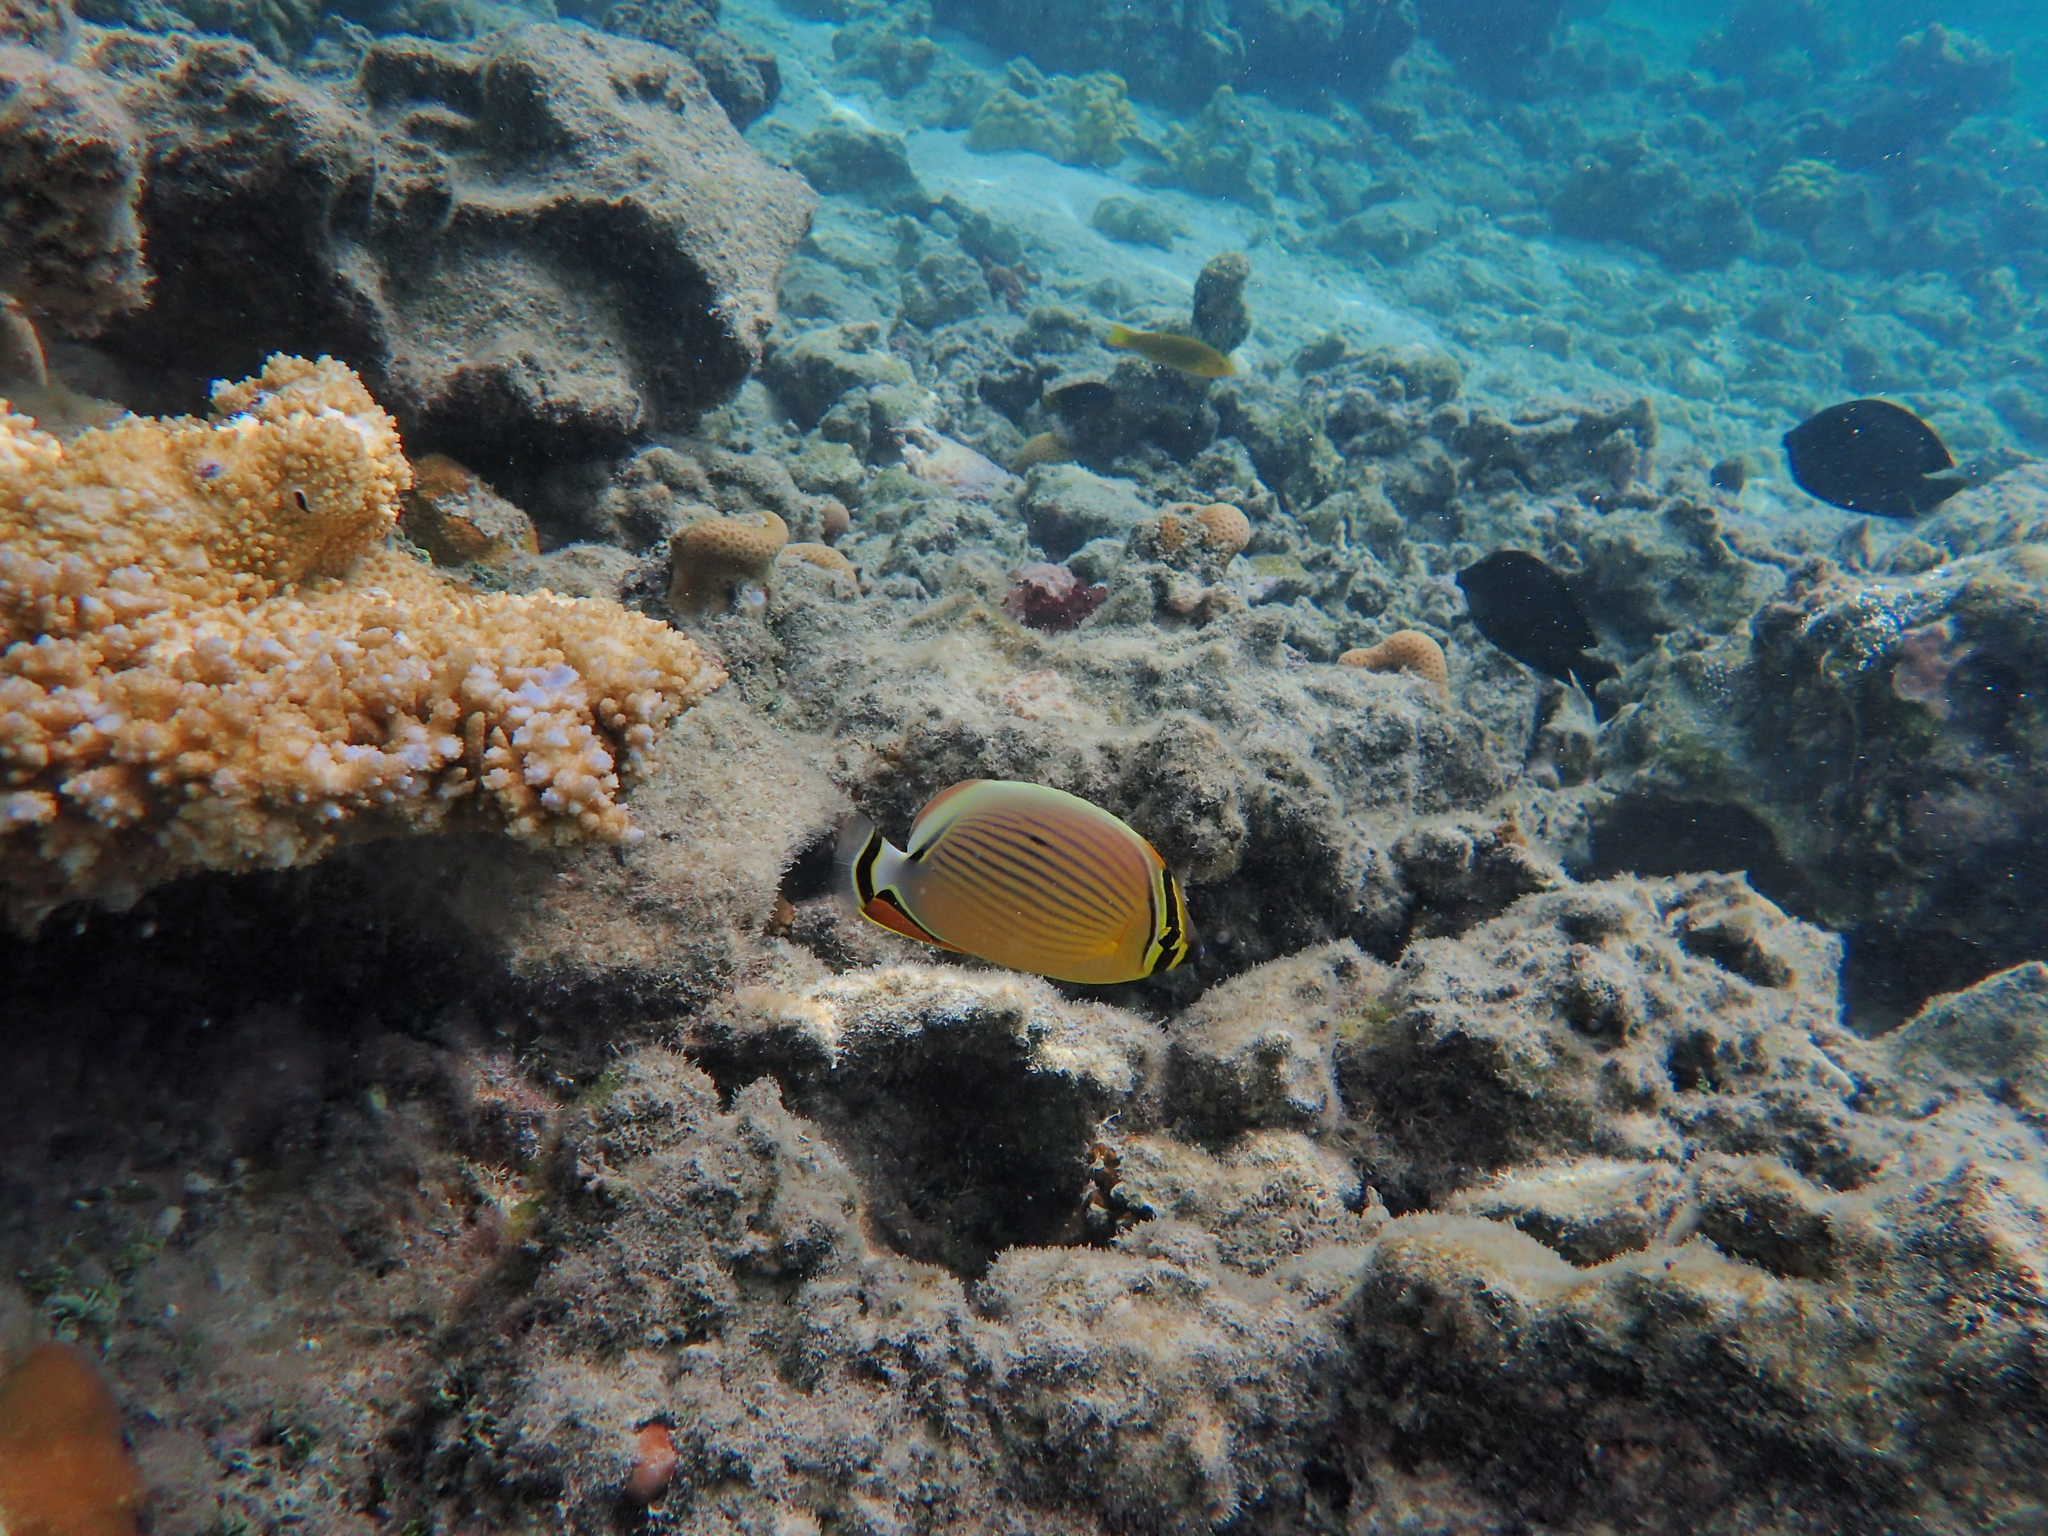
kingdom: Animalia
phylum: Chordata
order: Perciformes
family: Chaetodontidae
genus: Chaetodon
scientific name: Chaetodon lunulatus
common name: Redfin butterflyfish
